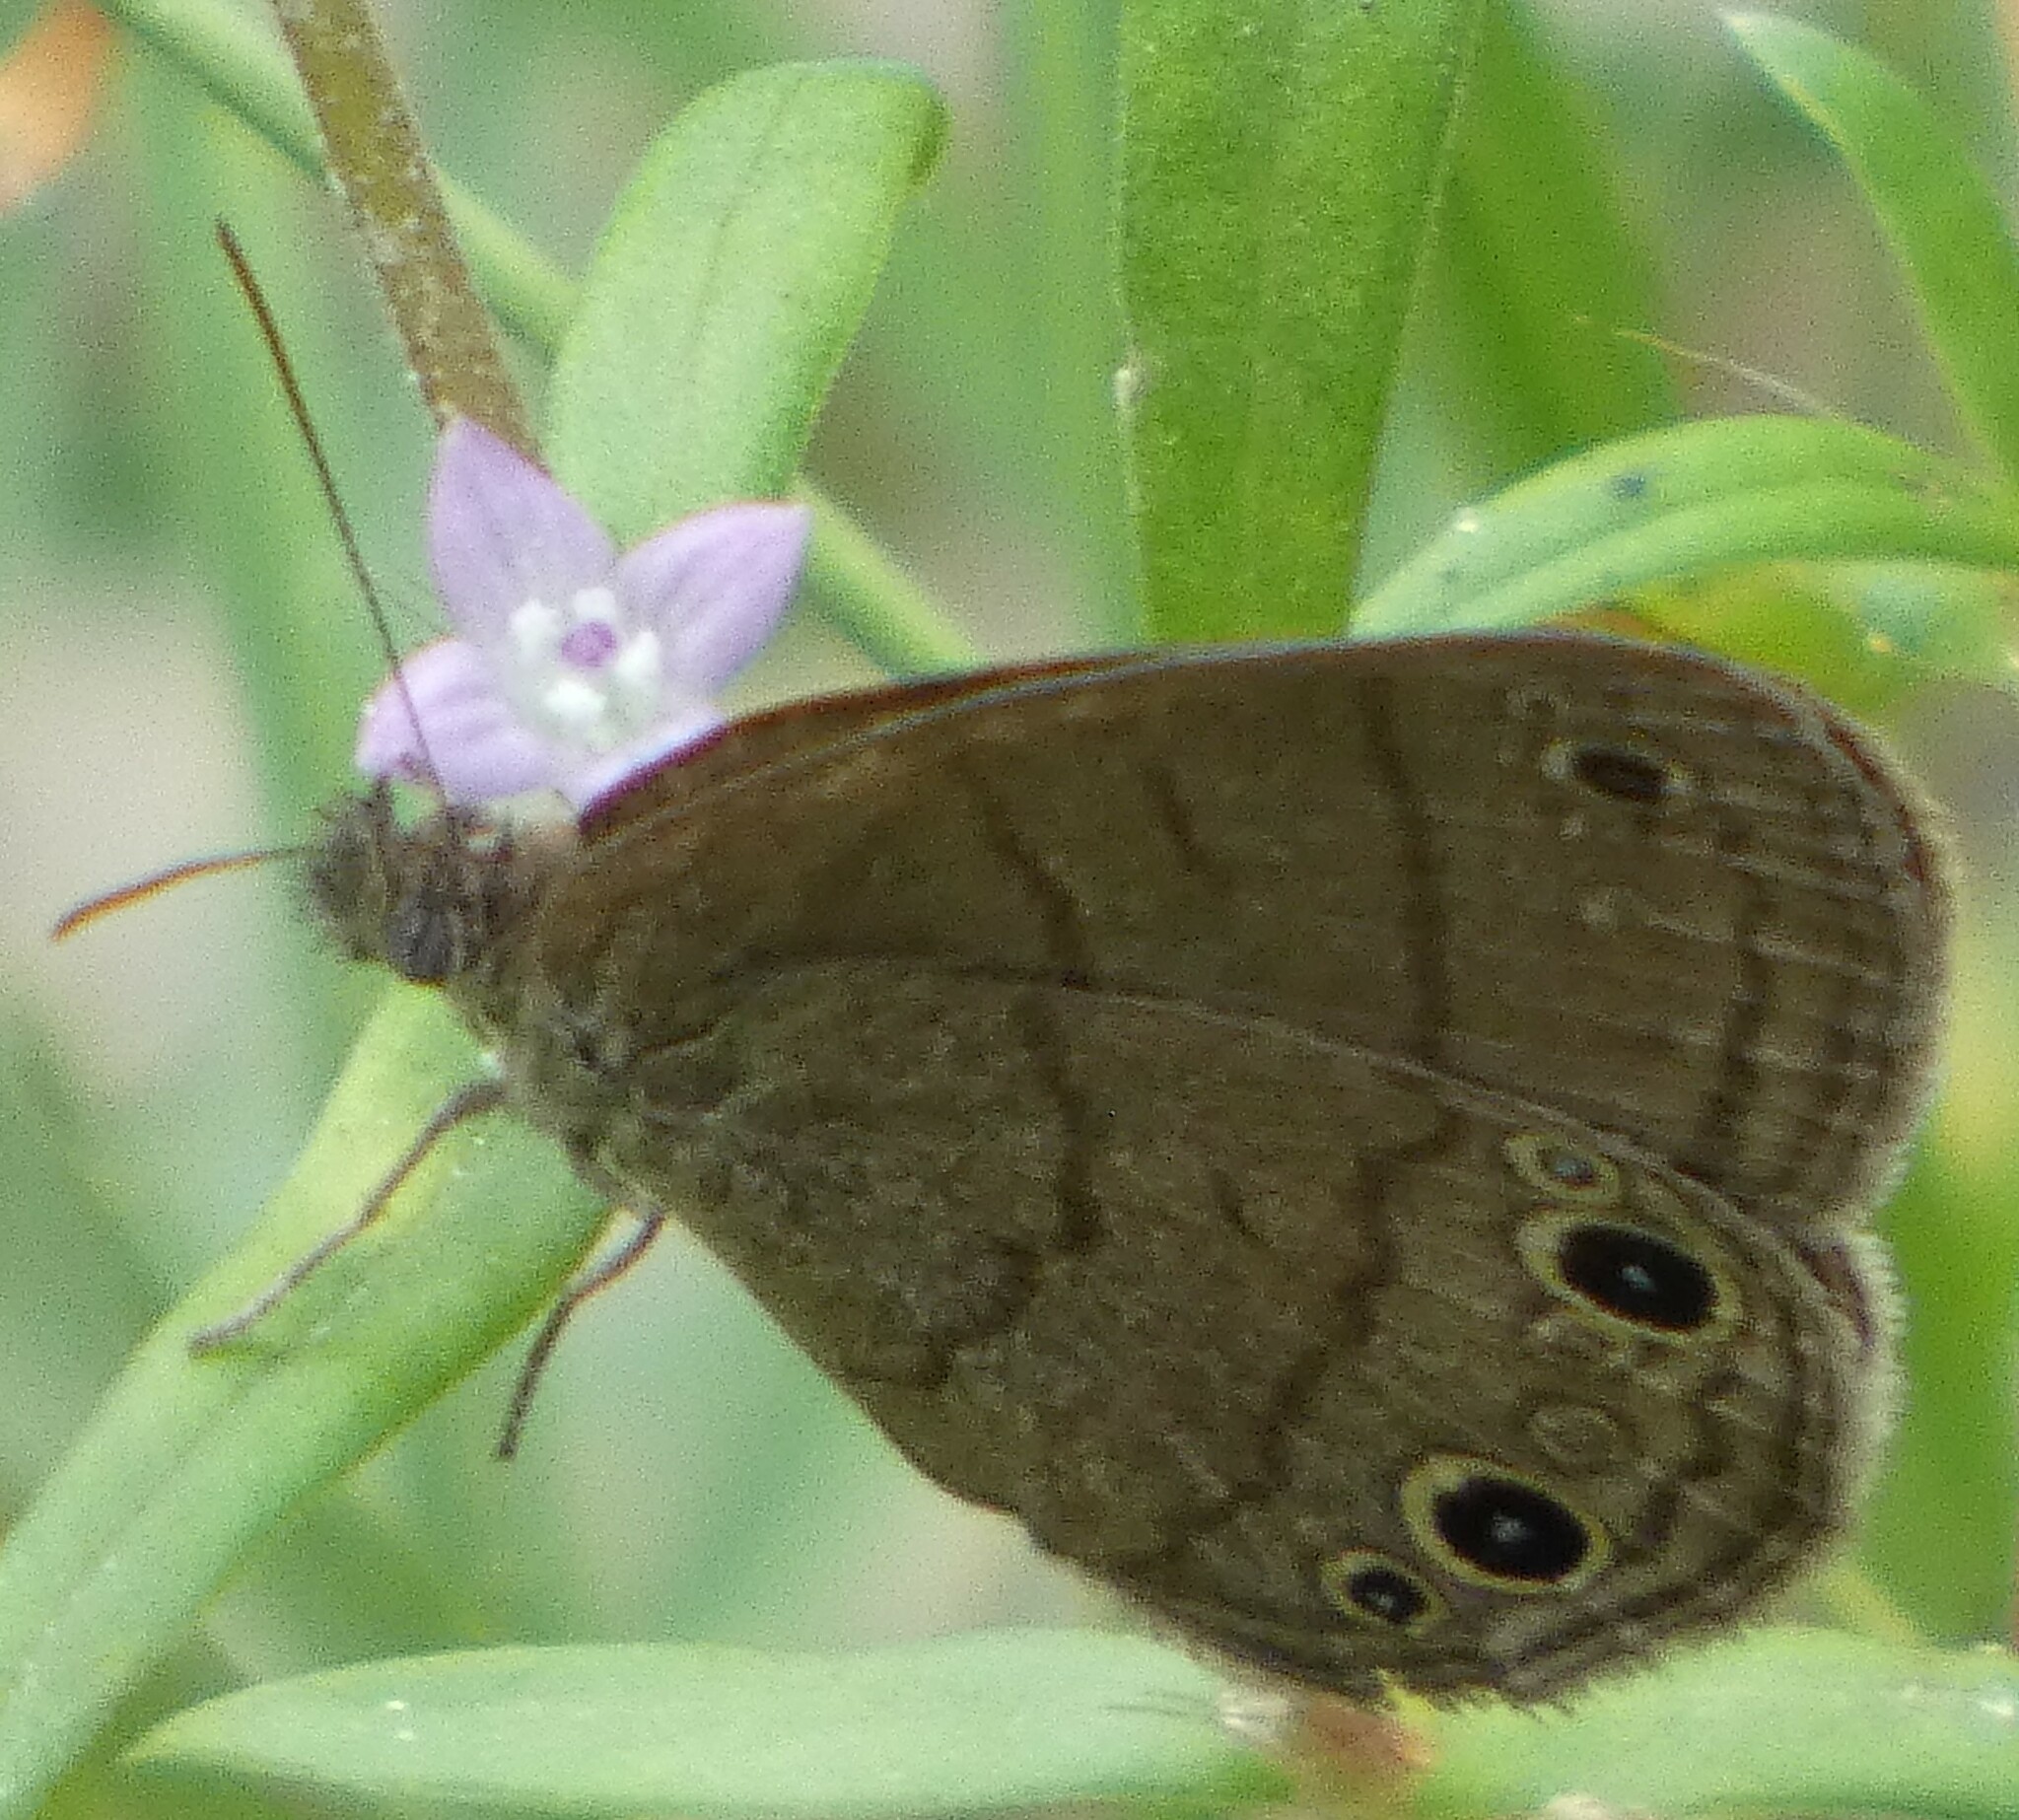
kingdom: Animalia
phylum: Arthropoda
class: Insecta
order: Lepidoptera
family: Nymphalidae
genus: Hermeuptychia
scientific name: Hermeuptychia hermes
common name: Hermes satyr
